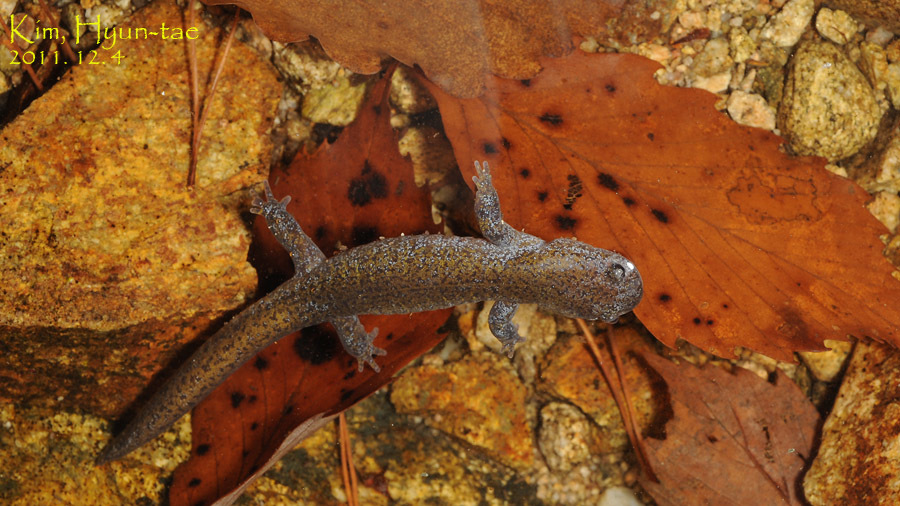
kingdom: Animalia
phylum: Chordata
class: Amphibia
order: Caudata
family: Hynobiidae
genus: Hynobius
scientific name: Hynobius leechii
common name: Gensan salamander
